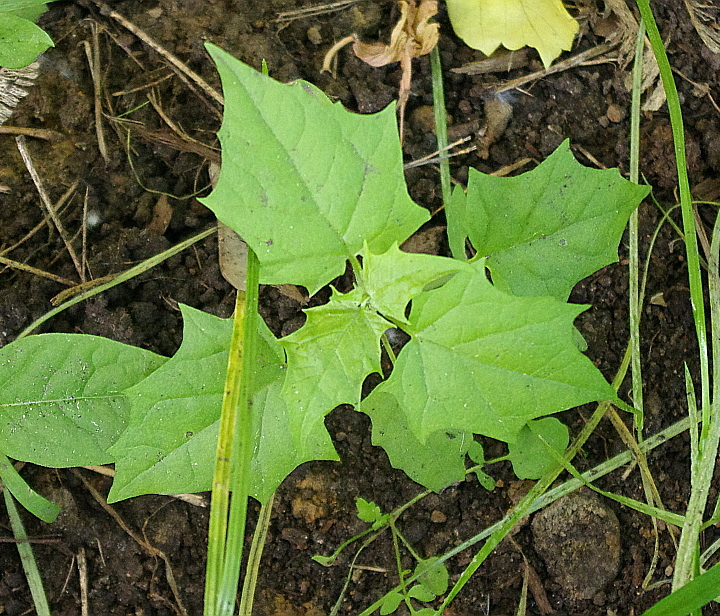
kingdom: Plantae
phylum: Tracheophyta
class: Magnoliopsida
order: Caryophyllales
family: Amaranthaceae
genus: Chenopodiastrum
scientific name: Chenopodiastrum hybridum
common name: Mapleleaf goosefoot
